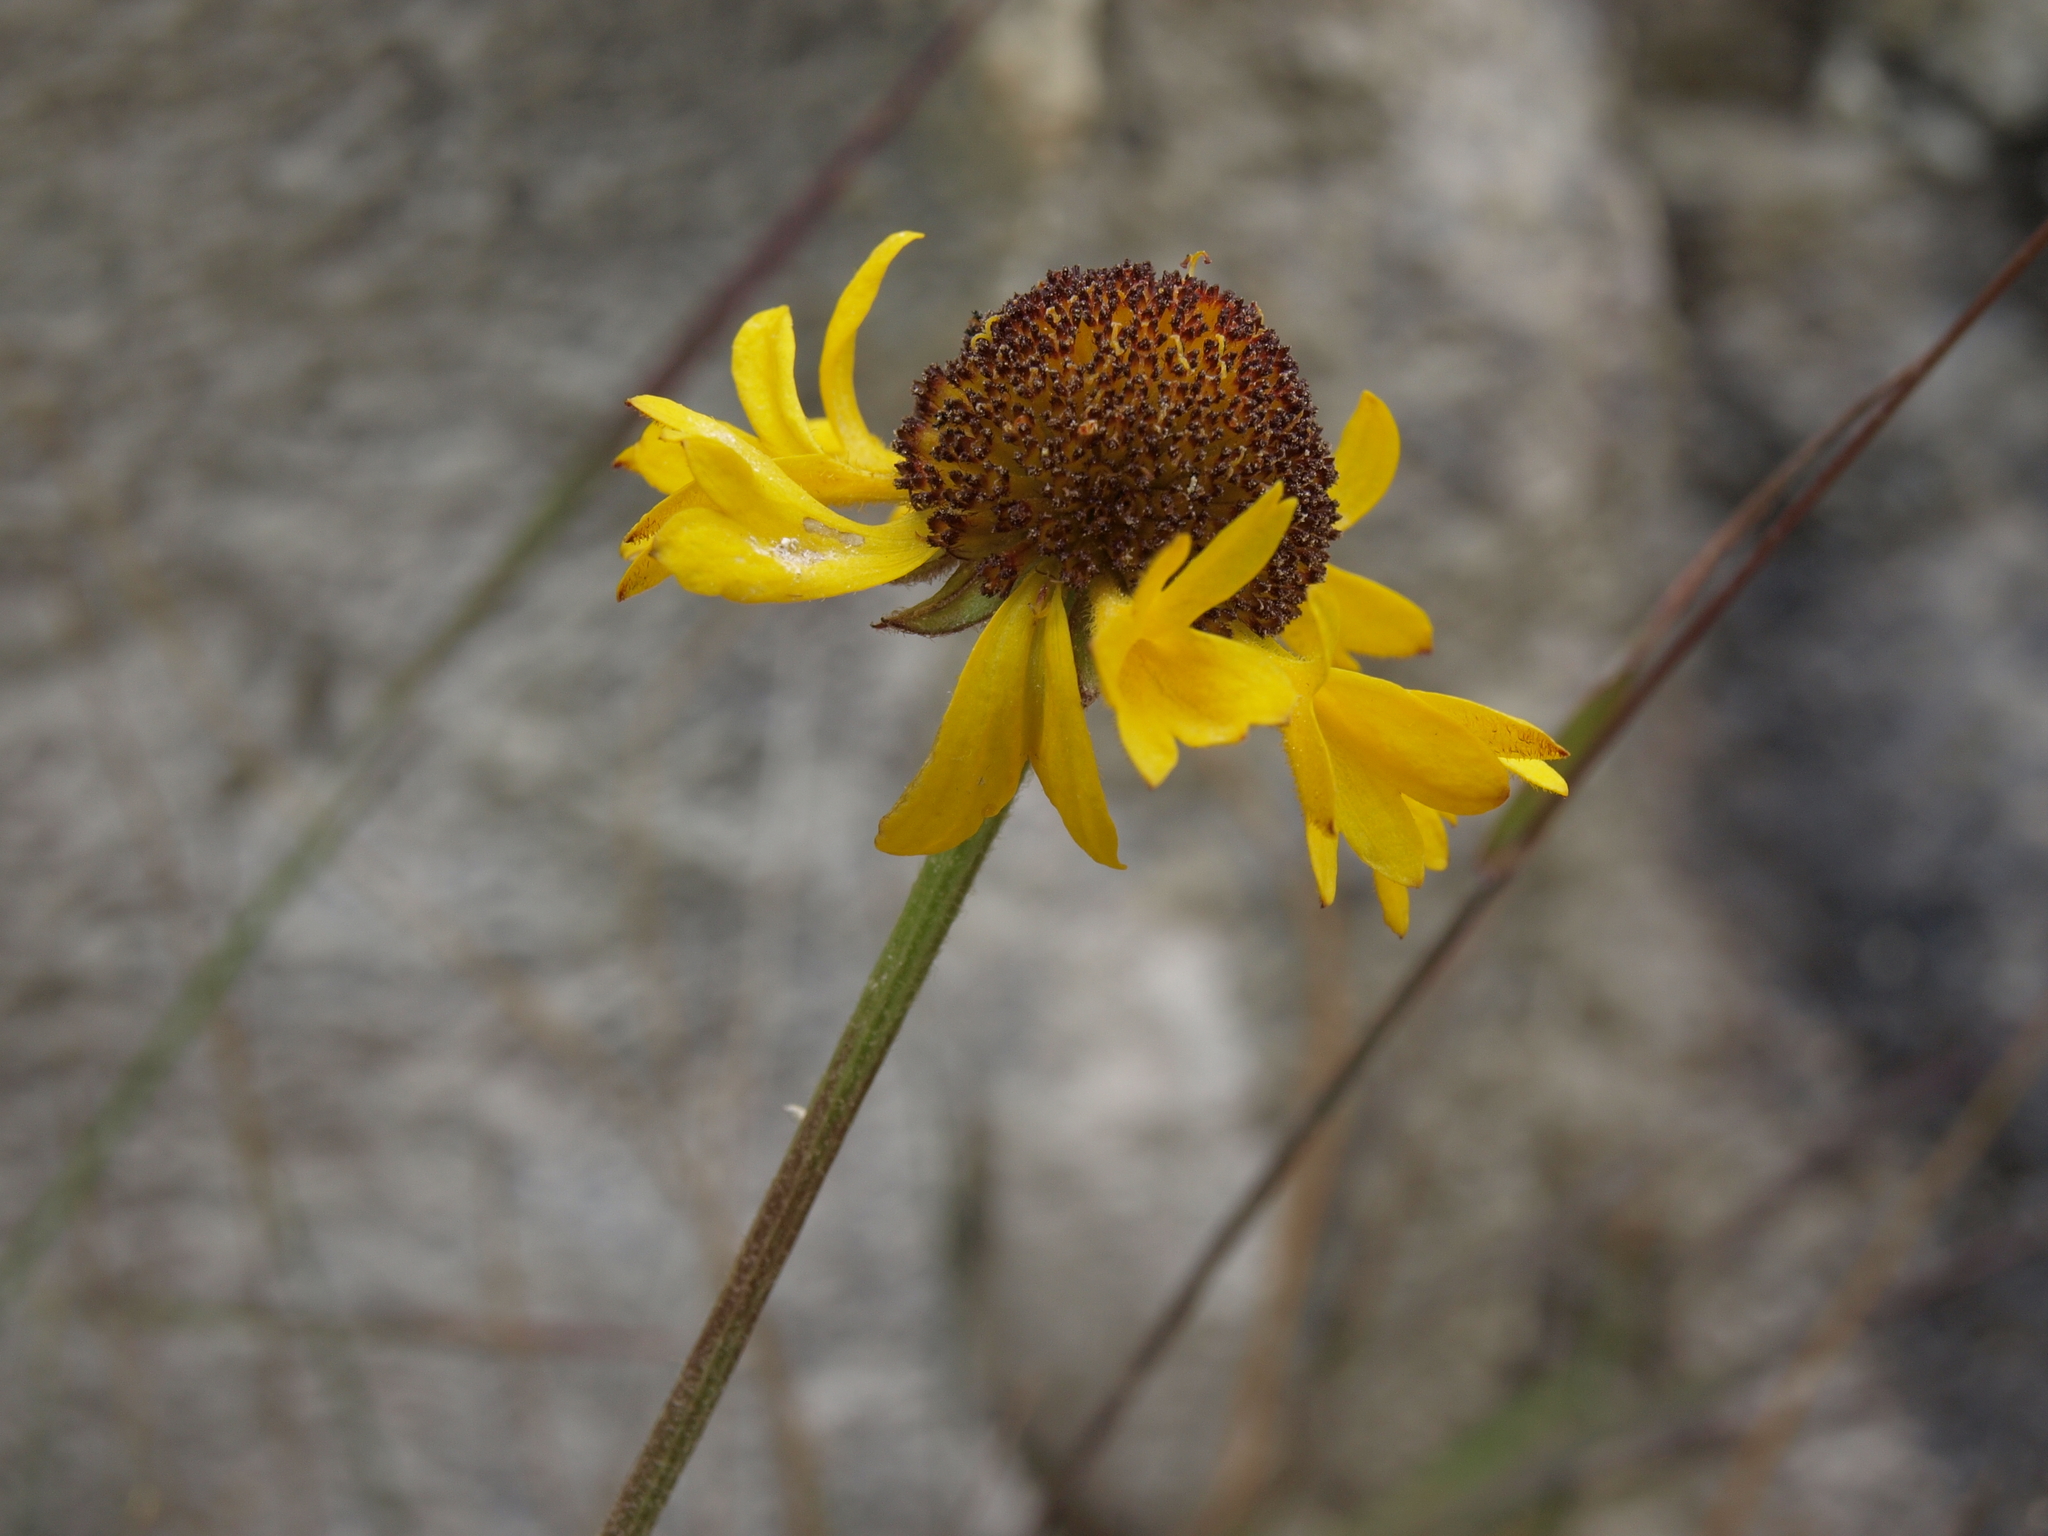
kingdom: Plantae
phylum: Tracheophyta
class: Magnoliopsida
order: Asterales
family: Asteraceae
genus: Helenium
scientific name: Helenium bigelovii
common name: Bigelow's sneezeweed
